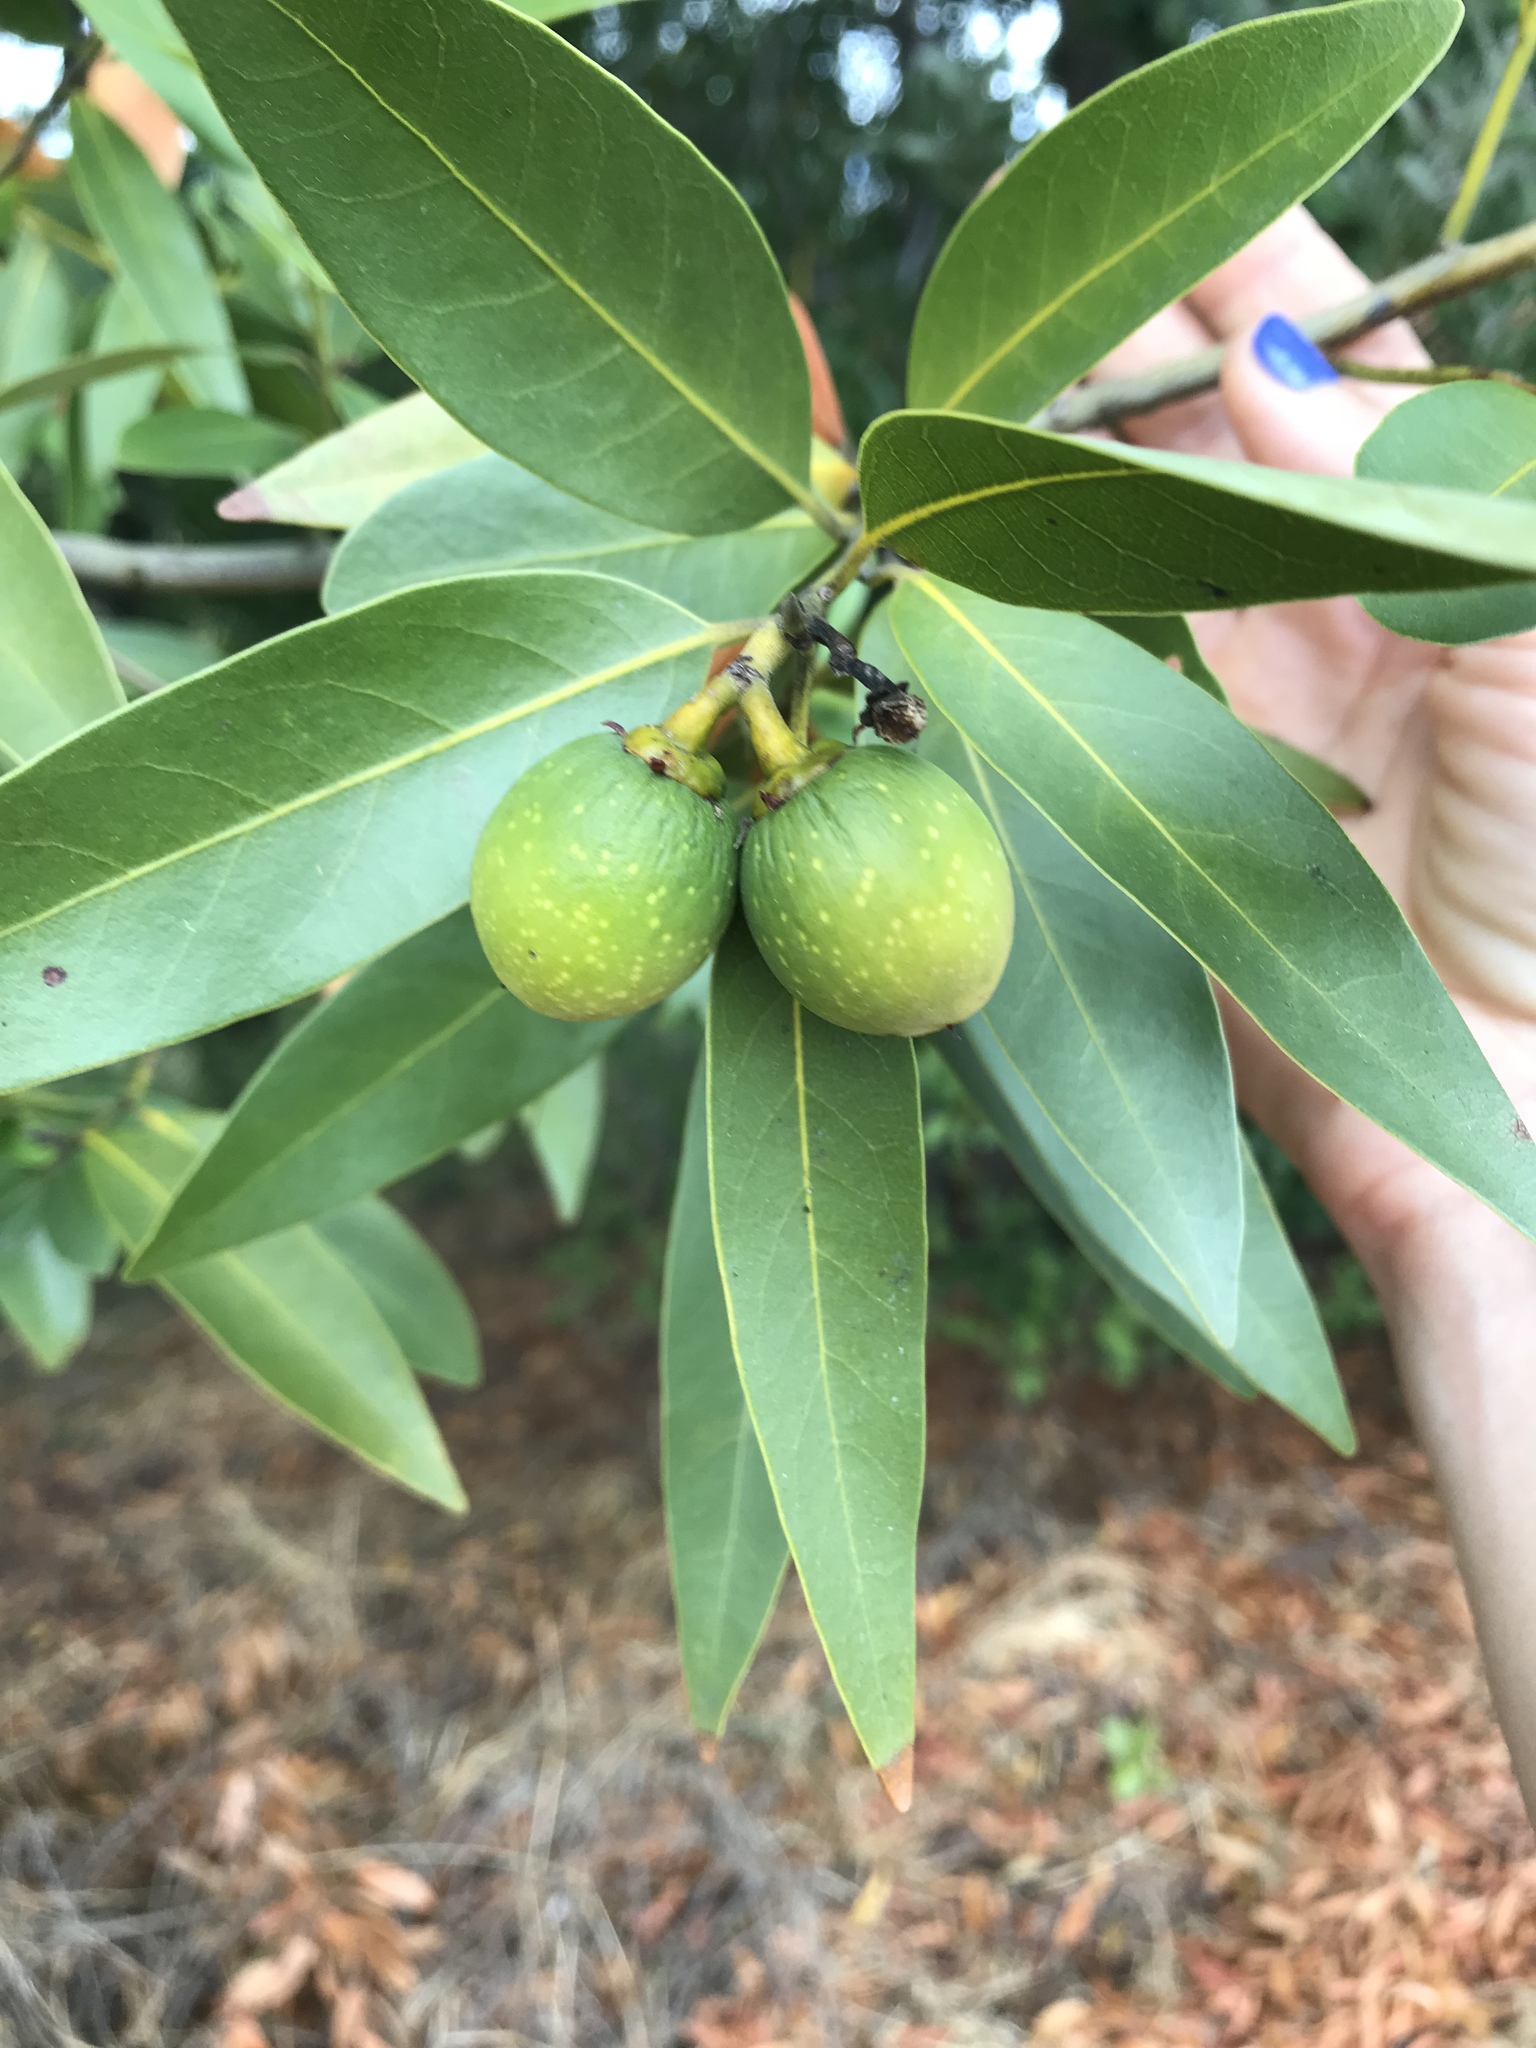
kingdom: Plantae
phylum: Tracheophyta
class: Magnoliopsida
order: Laurales
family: Lauraceae
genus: Umbellularia
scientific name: Umbellularia californica
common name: California bay
